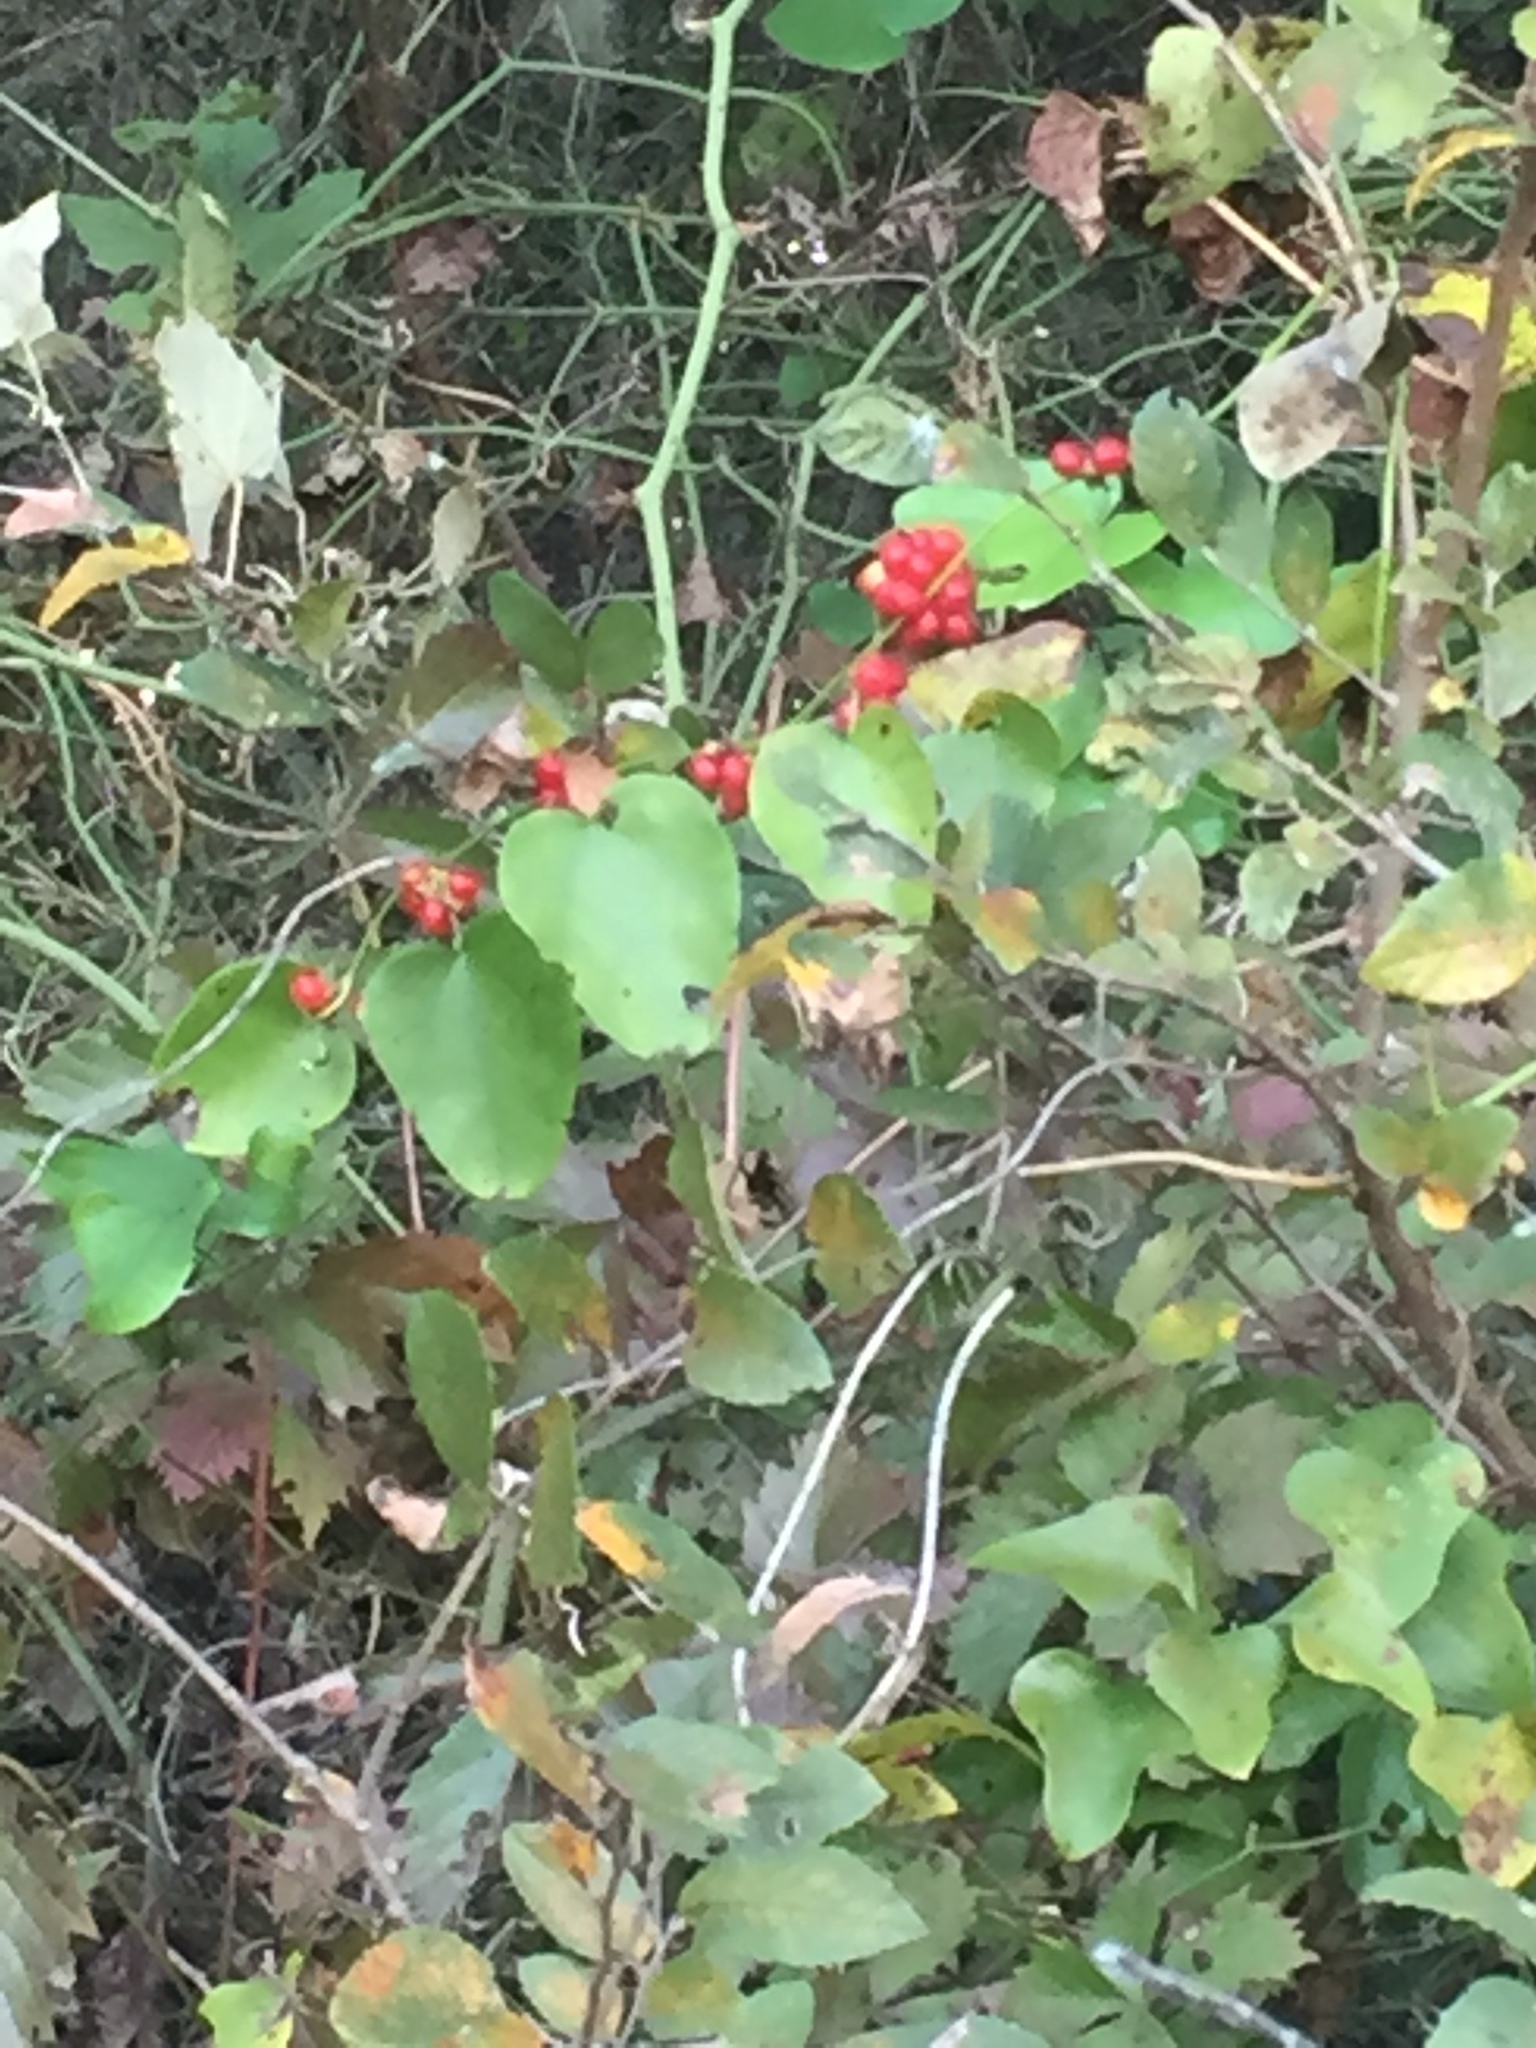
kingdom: Plantae
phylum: Tracheophyta
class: Magnoliopsida
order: Ranunculales
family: Menispermaceae
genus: Cocculus
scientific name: Cocculus carolinus
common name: Carolina moonseed
